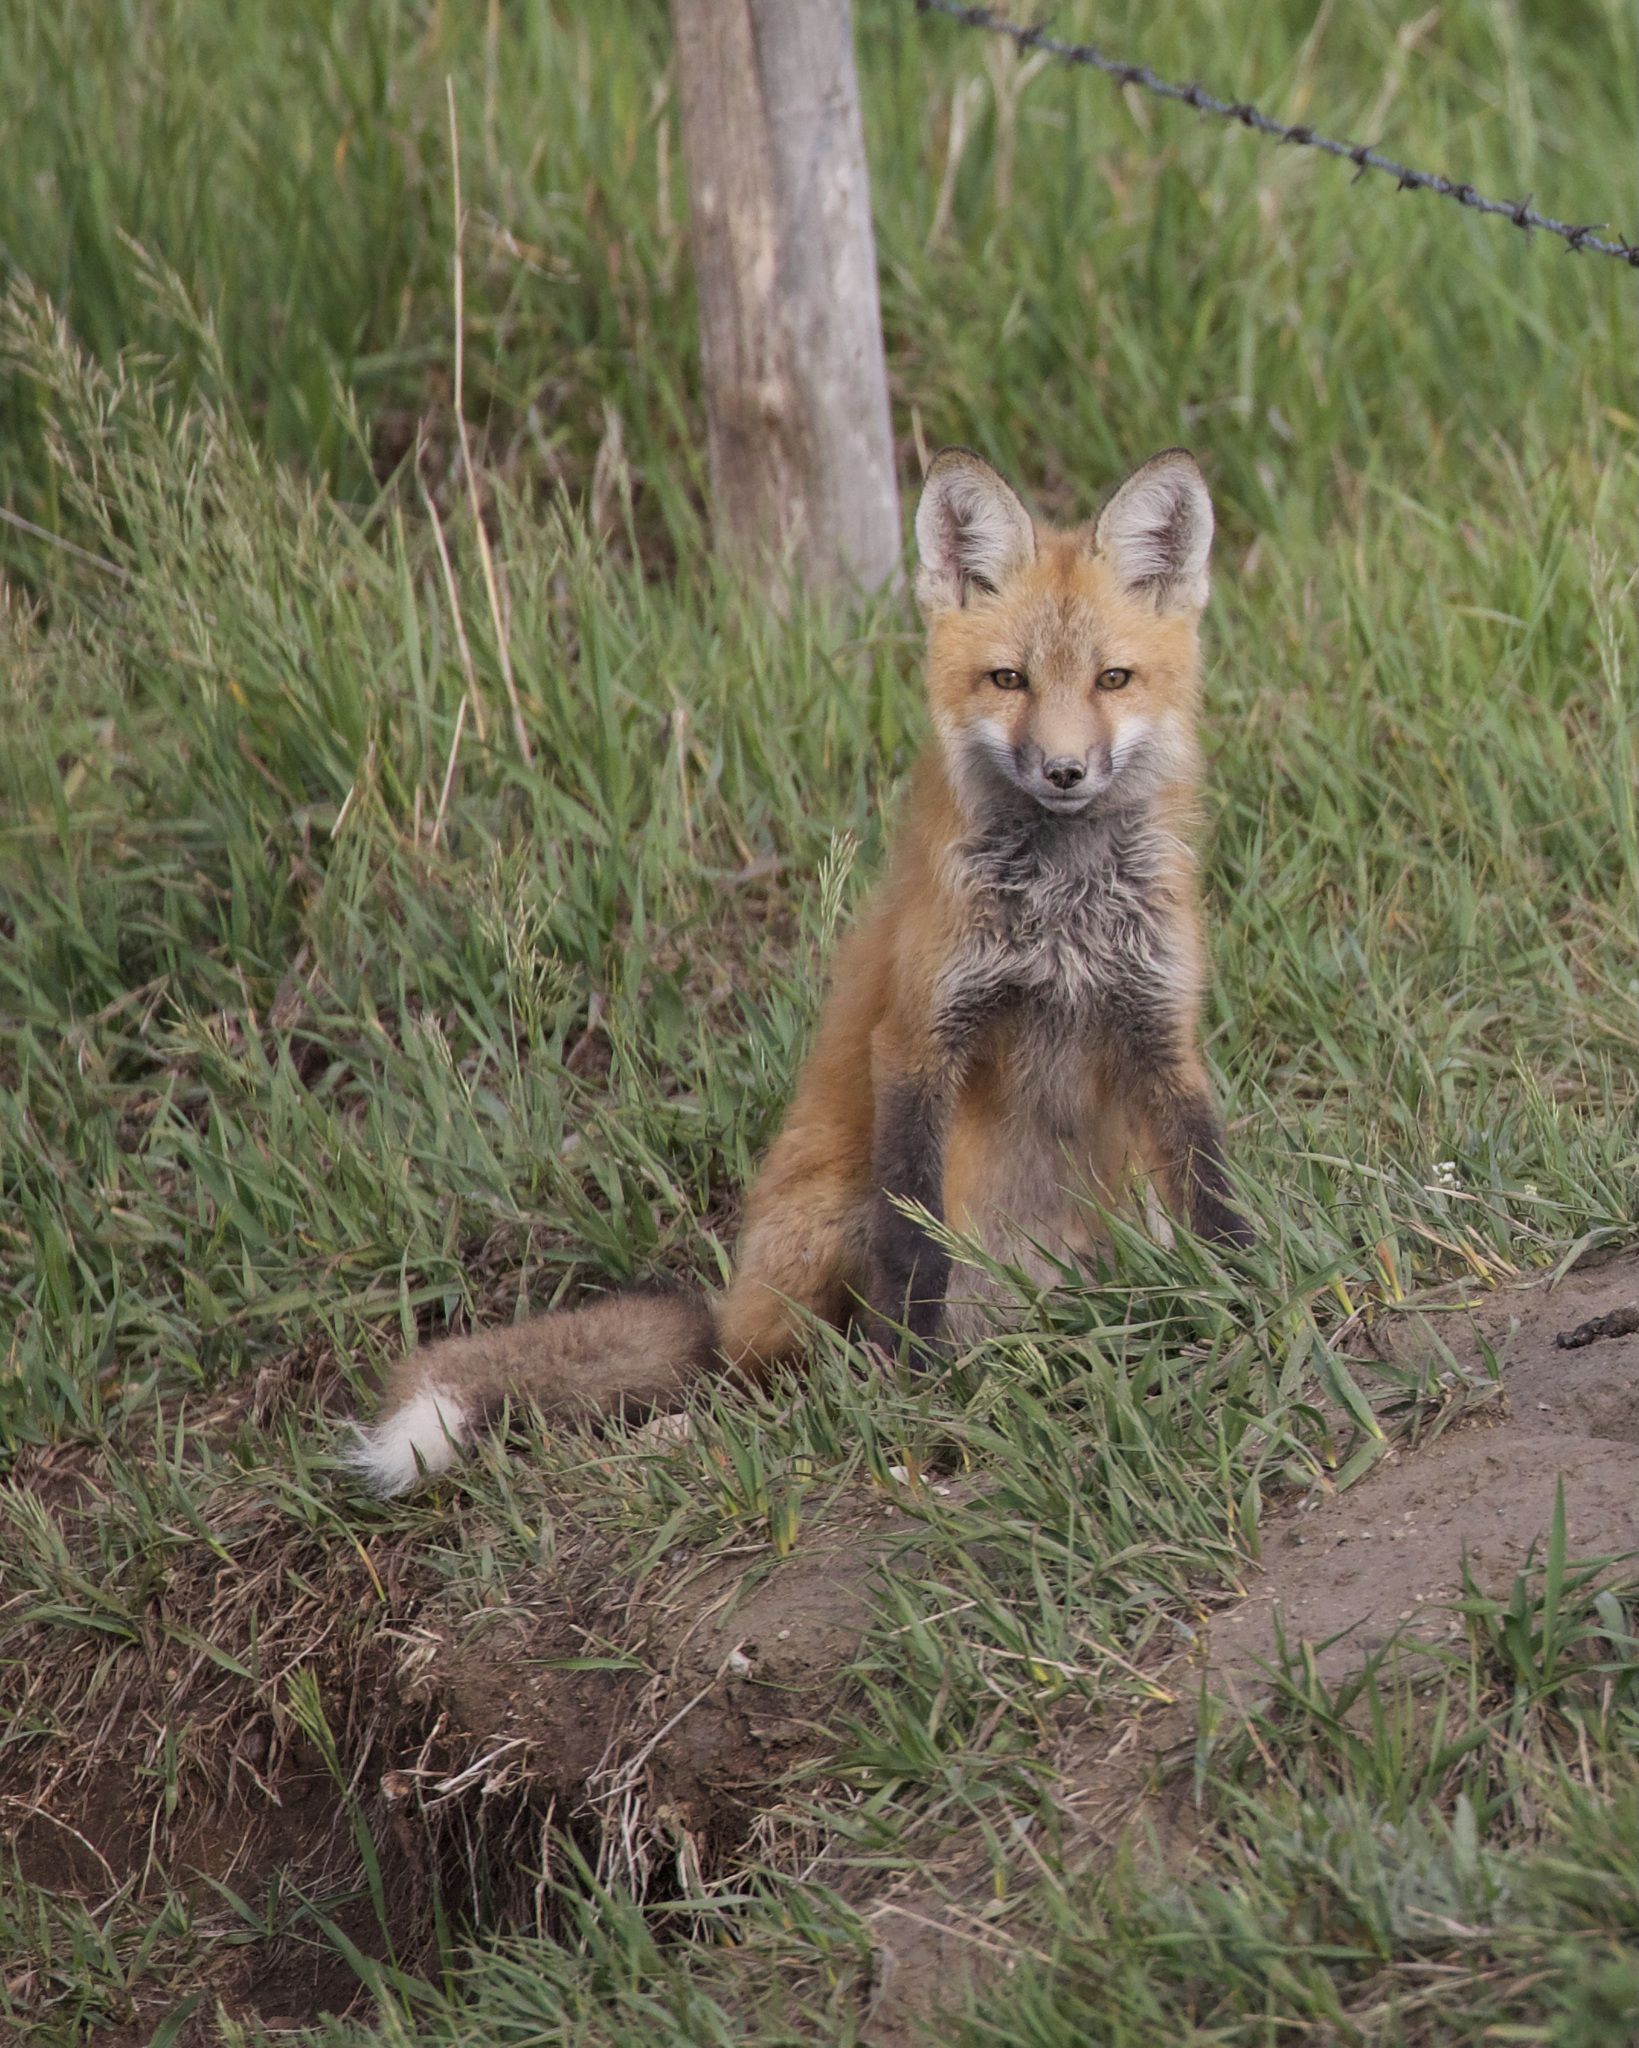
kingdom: Animalia
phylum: Chordata
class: Mammalia
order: Carnivora
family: Canidae
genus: Vulpes
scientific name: Vulpes vulpes
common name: Red fox
